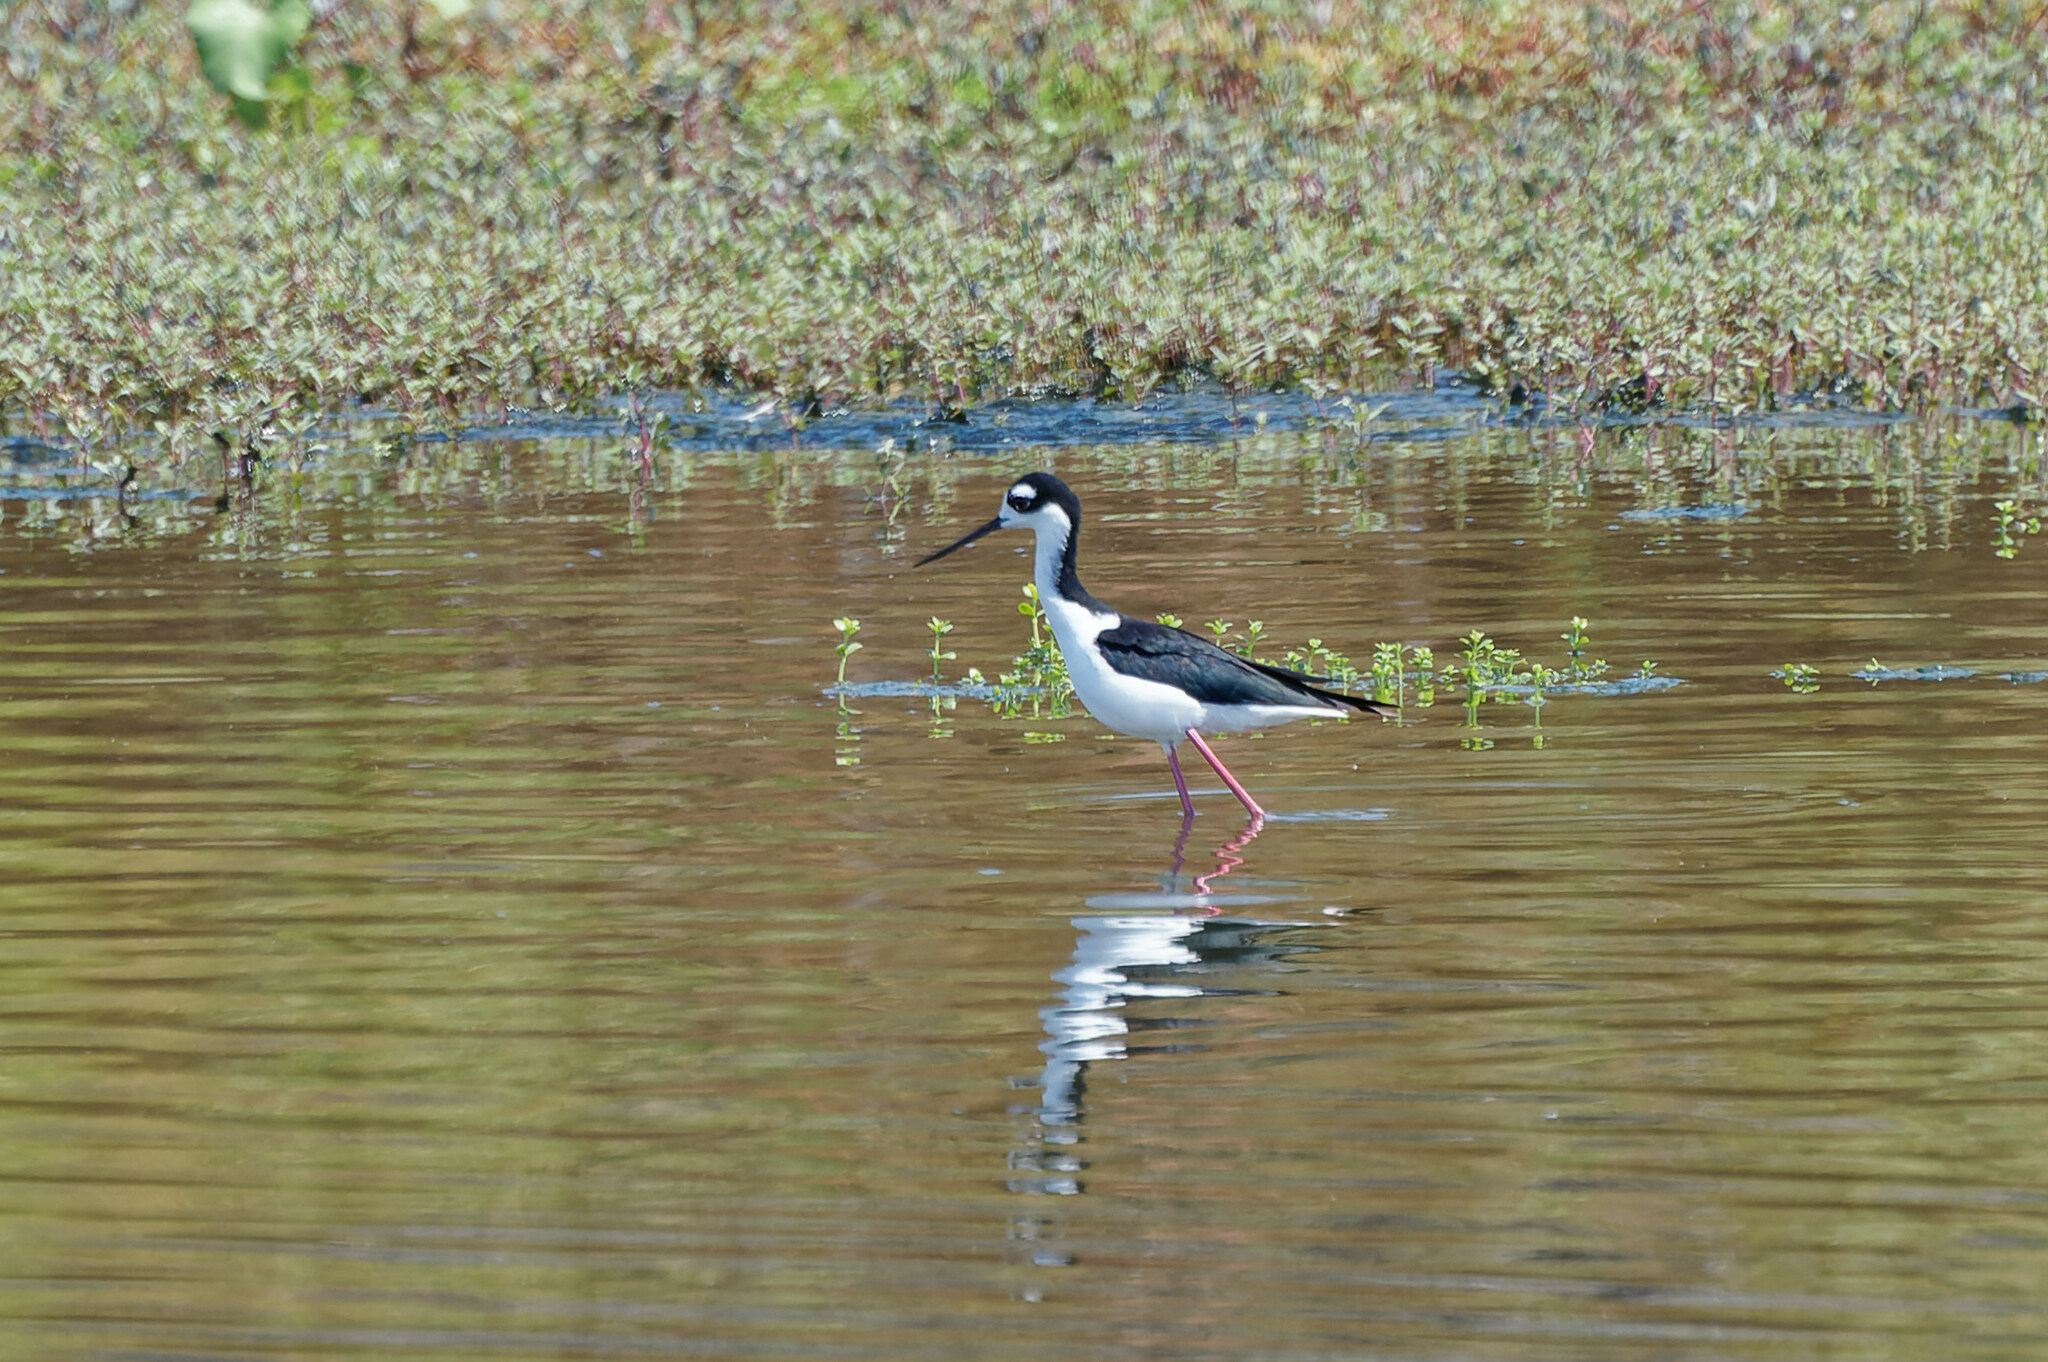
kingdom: Animalia
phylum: Chordata
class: Aves
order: Charadriiformes
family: Recurvirostridae
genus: Himantopus
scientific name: Himantopus mexicanus
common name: Black-necked stilt
